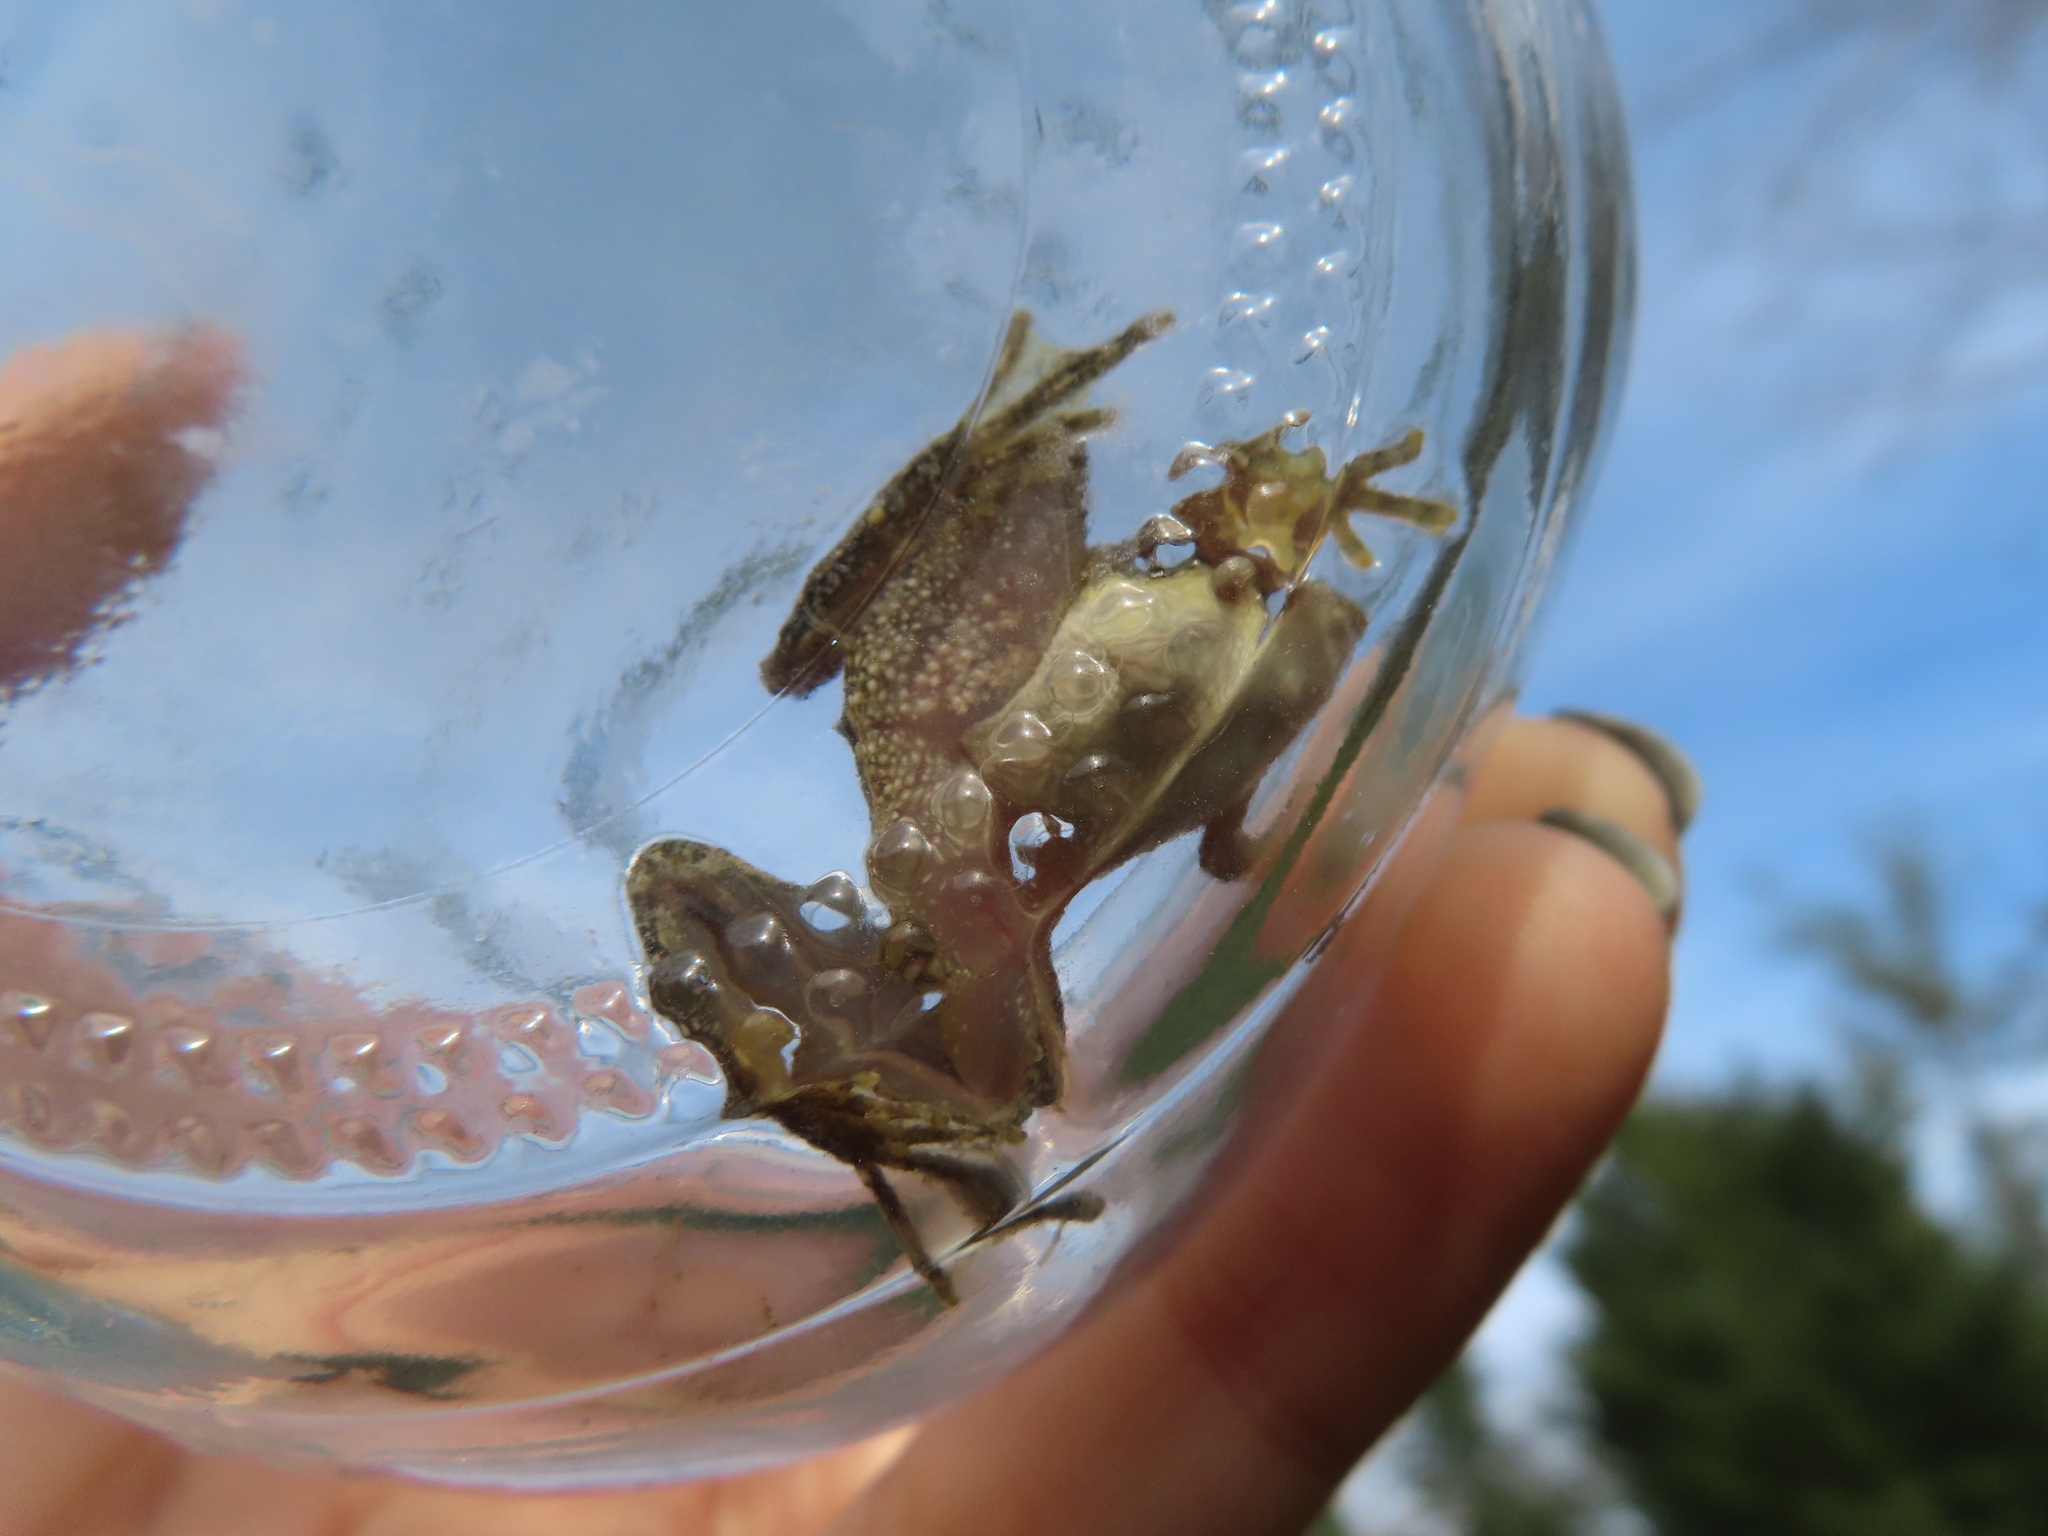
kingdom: Animalia
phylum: Chordata
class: Amphibia
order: Anura
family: Hylidae
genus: Acris
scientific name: Acris blanchardi
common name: Blanchard's cricket frog
